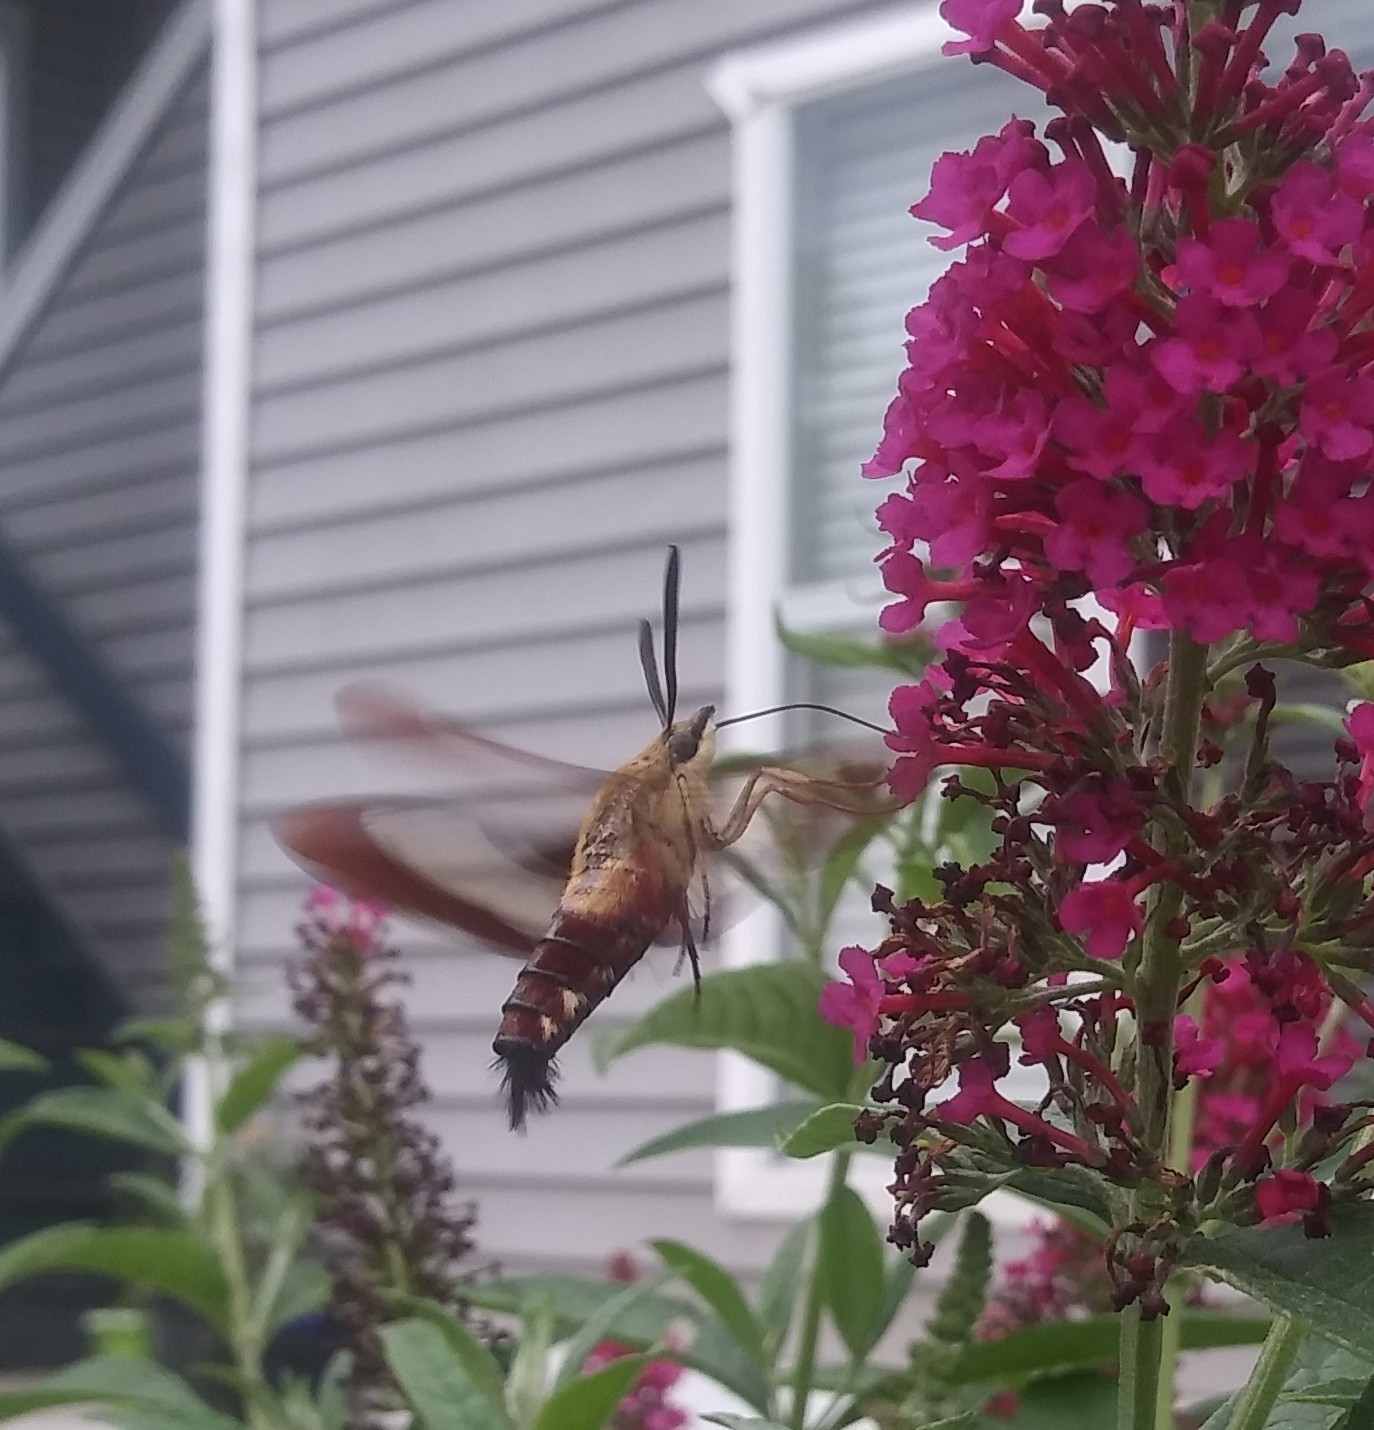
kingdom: Animalia
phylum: Arthropoda
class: Insecta
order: Lepidoptera
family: Sphingidae
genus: Hemaris
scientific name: Hemaris thysbe
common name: Common clear-wing
